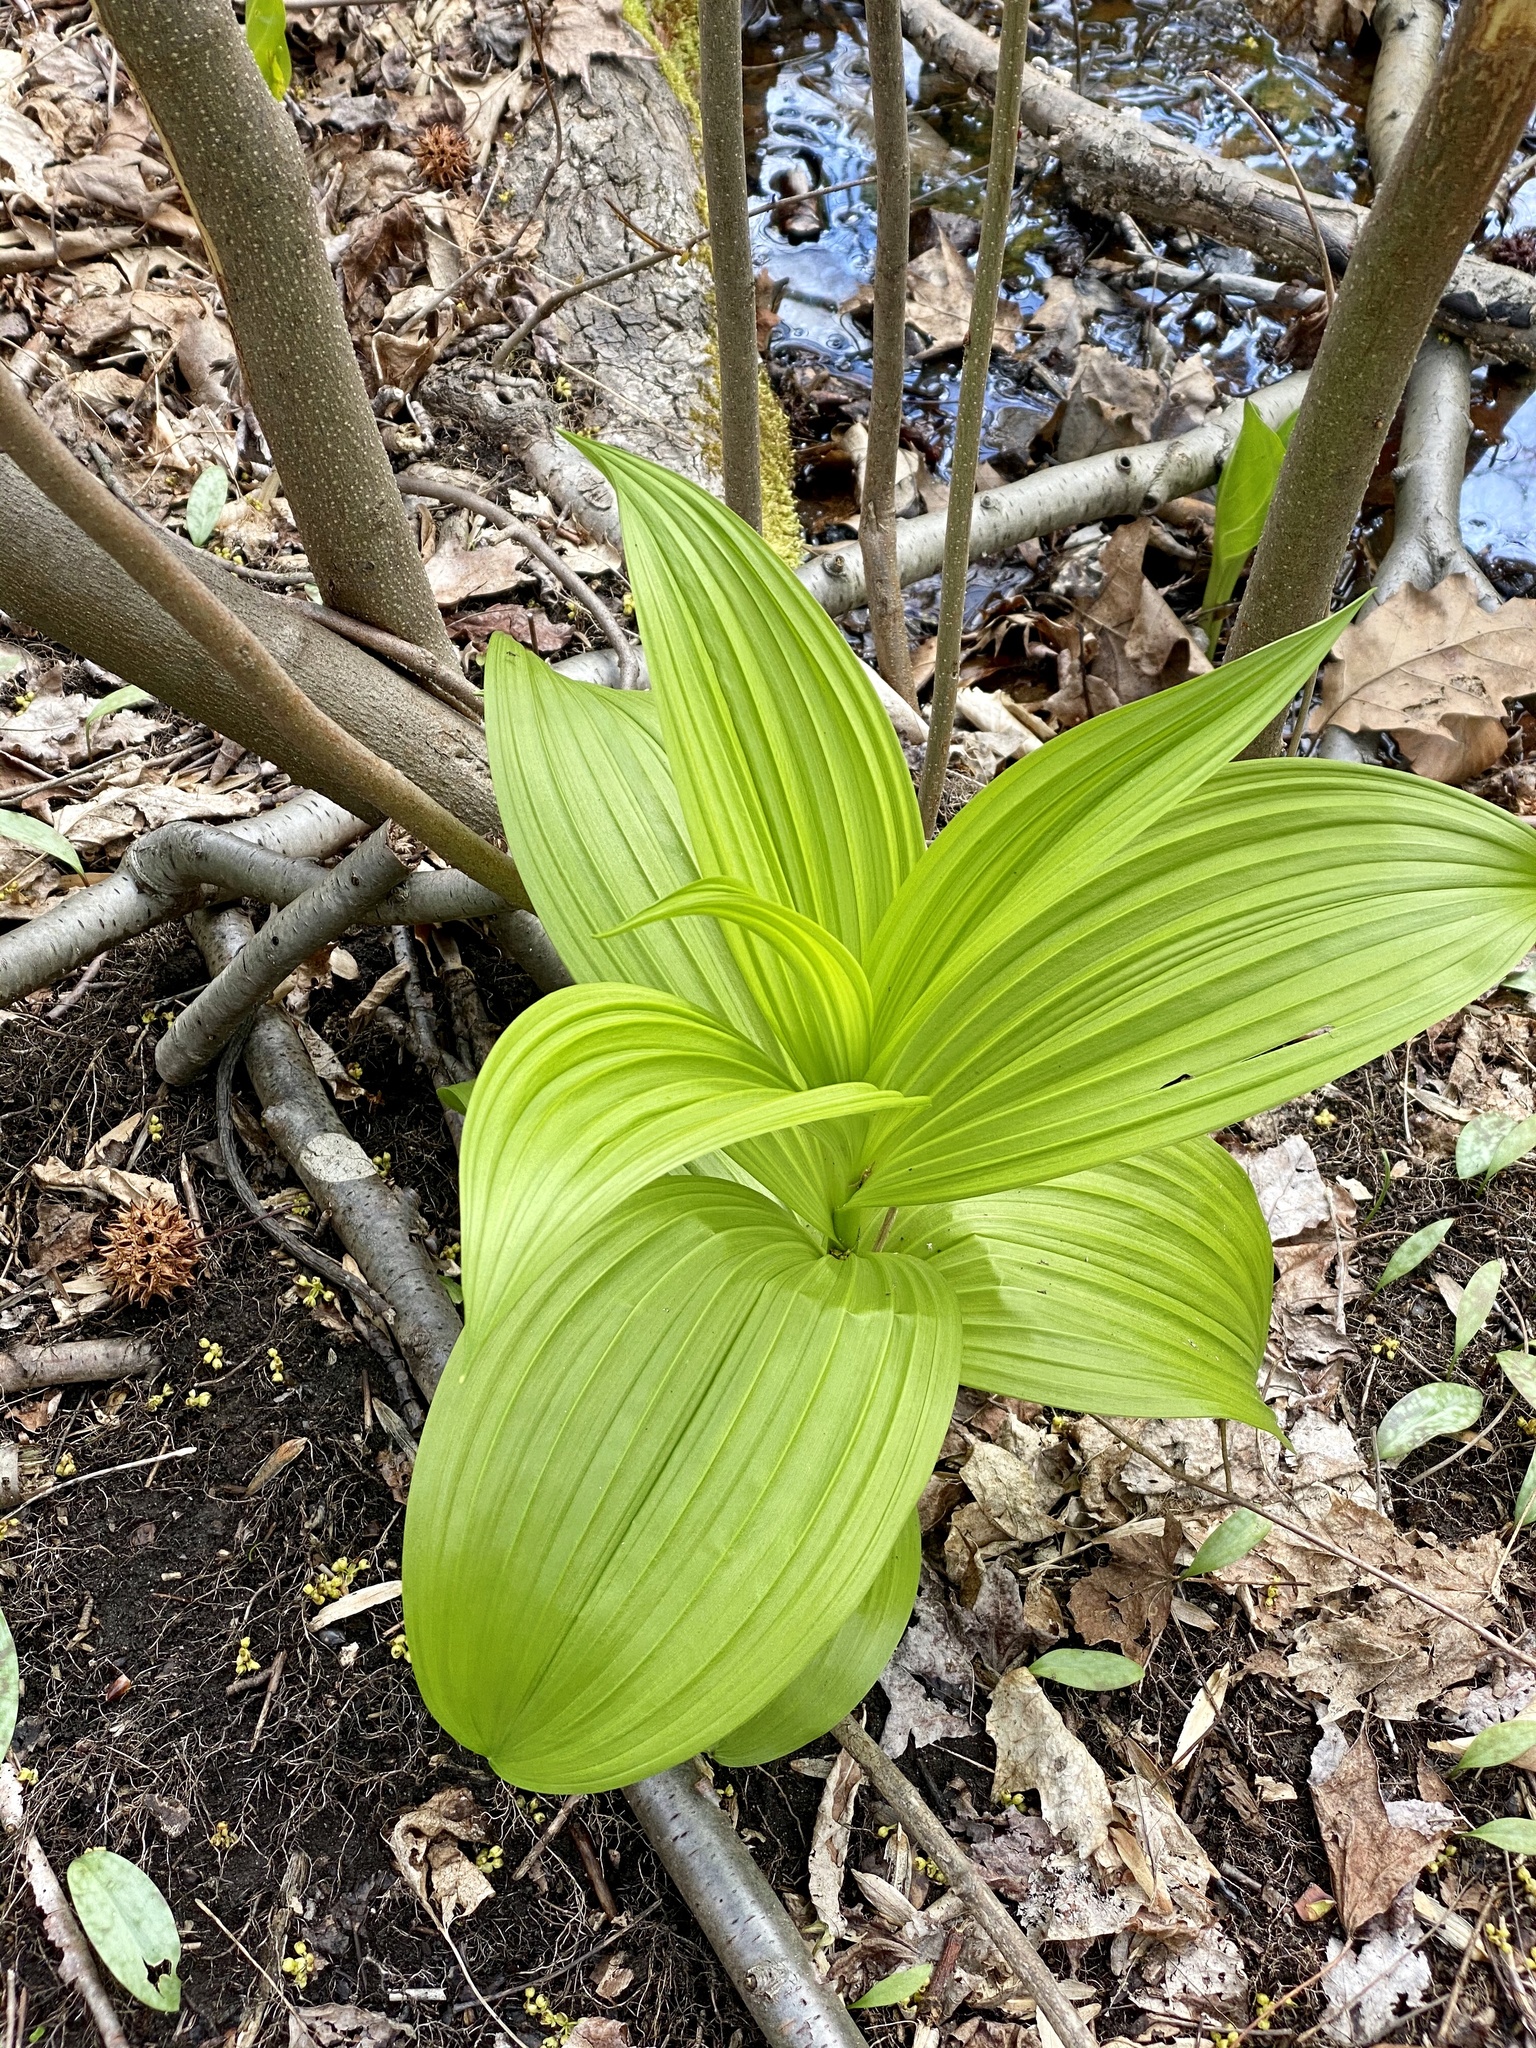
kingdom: Plantae
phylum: Tracheophyta
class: Liliopsida
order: Liliales
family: Melanthiaceae
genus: Veratrum
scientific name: Veratrum viride
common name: American false hellebore
